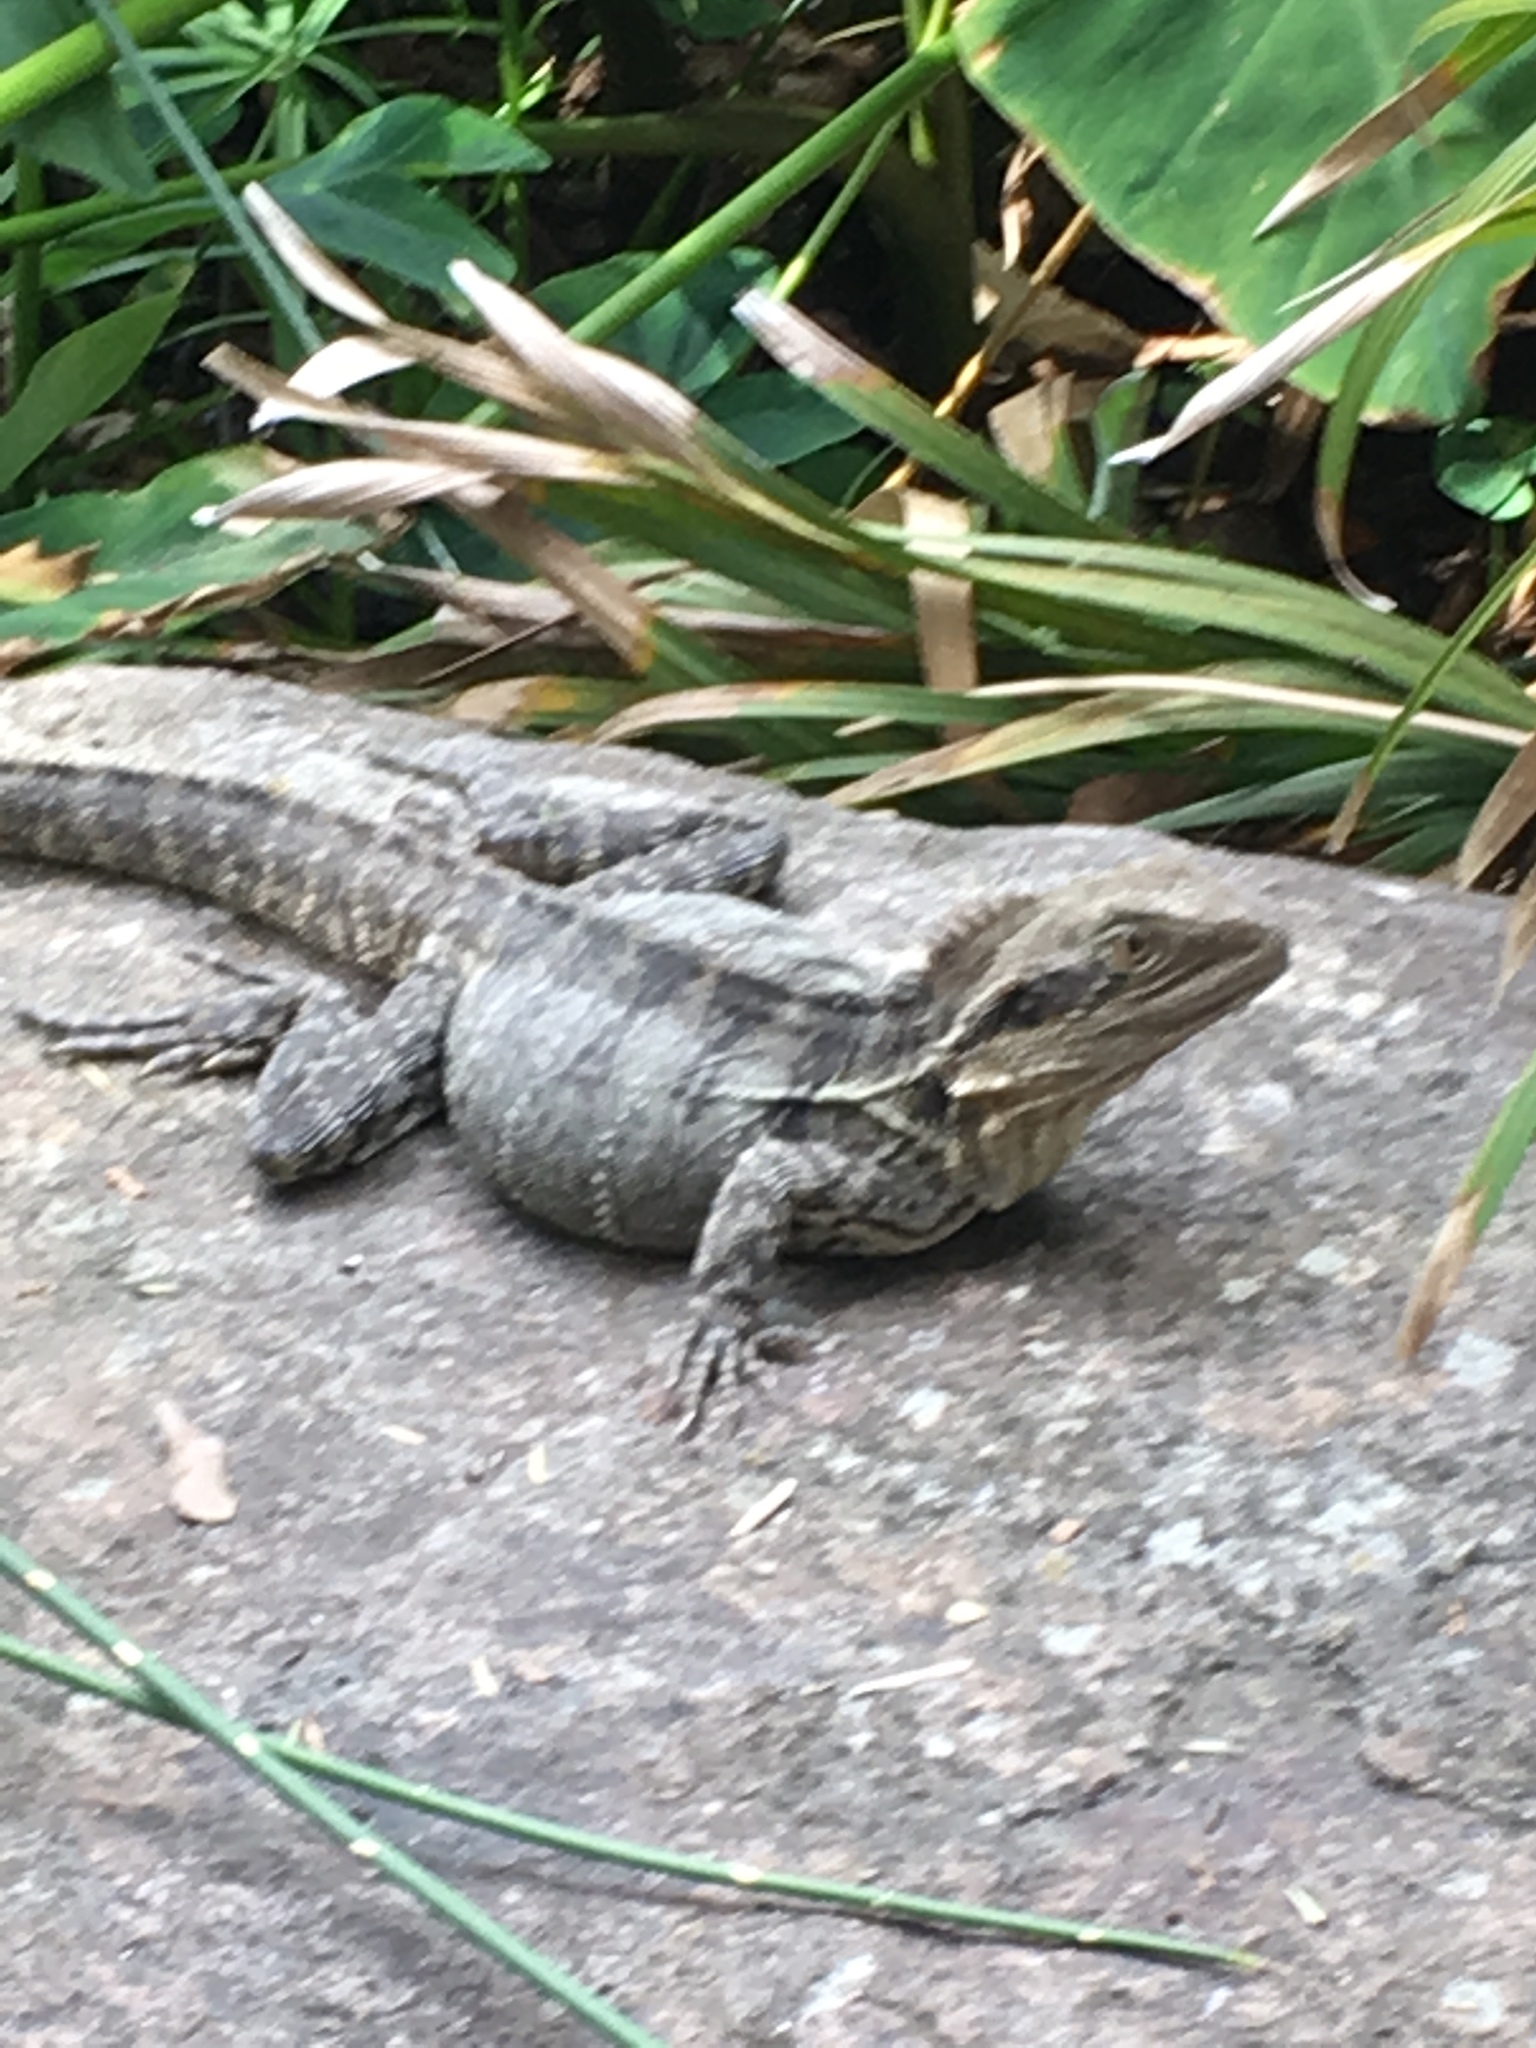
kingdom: Animalia
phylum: Chordata
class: Squamata
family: Agamidae
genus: Intellagama
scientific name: Intellagama lesueurii
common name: Eastern water dragon
